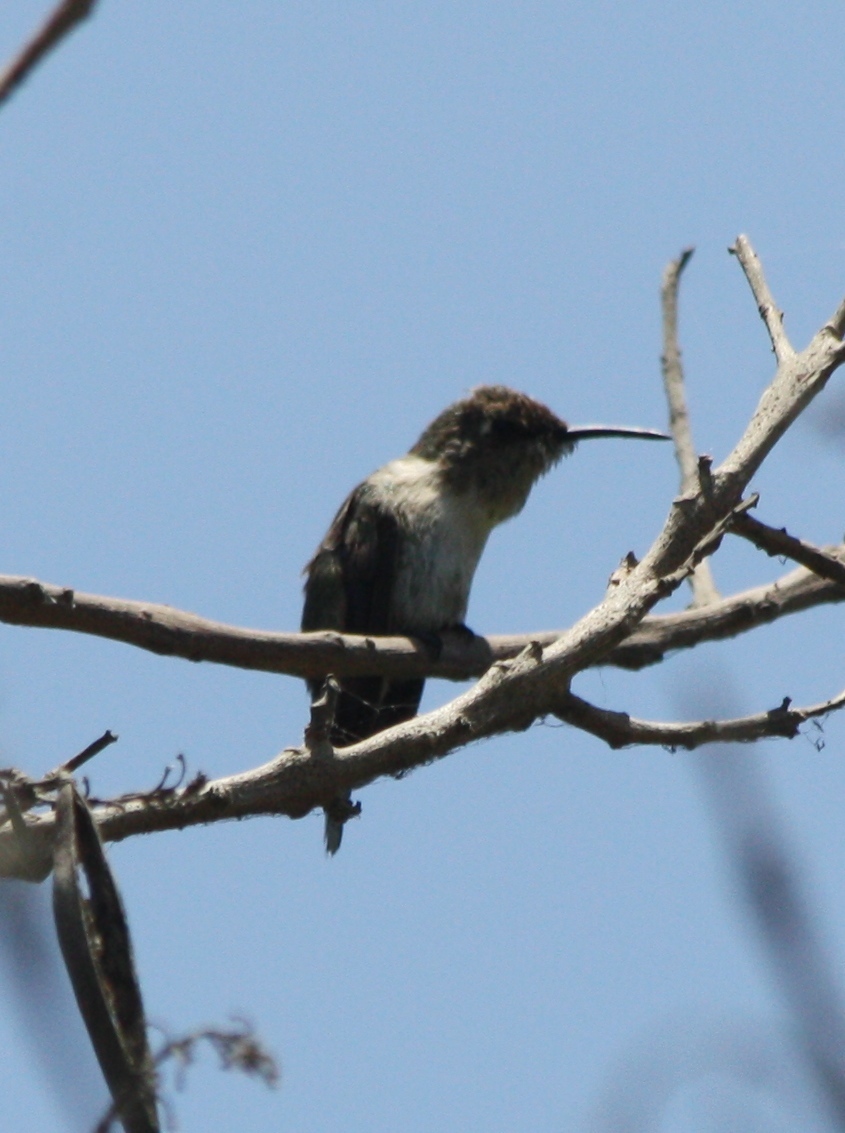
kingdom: Animalia
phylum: Chordata
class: Aves
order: Apodiformes
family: Trochilidae
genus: Myrtis
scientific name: Myrtis fanny
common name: Purple-collared woodstar
